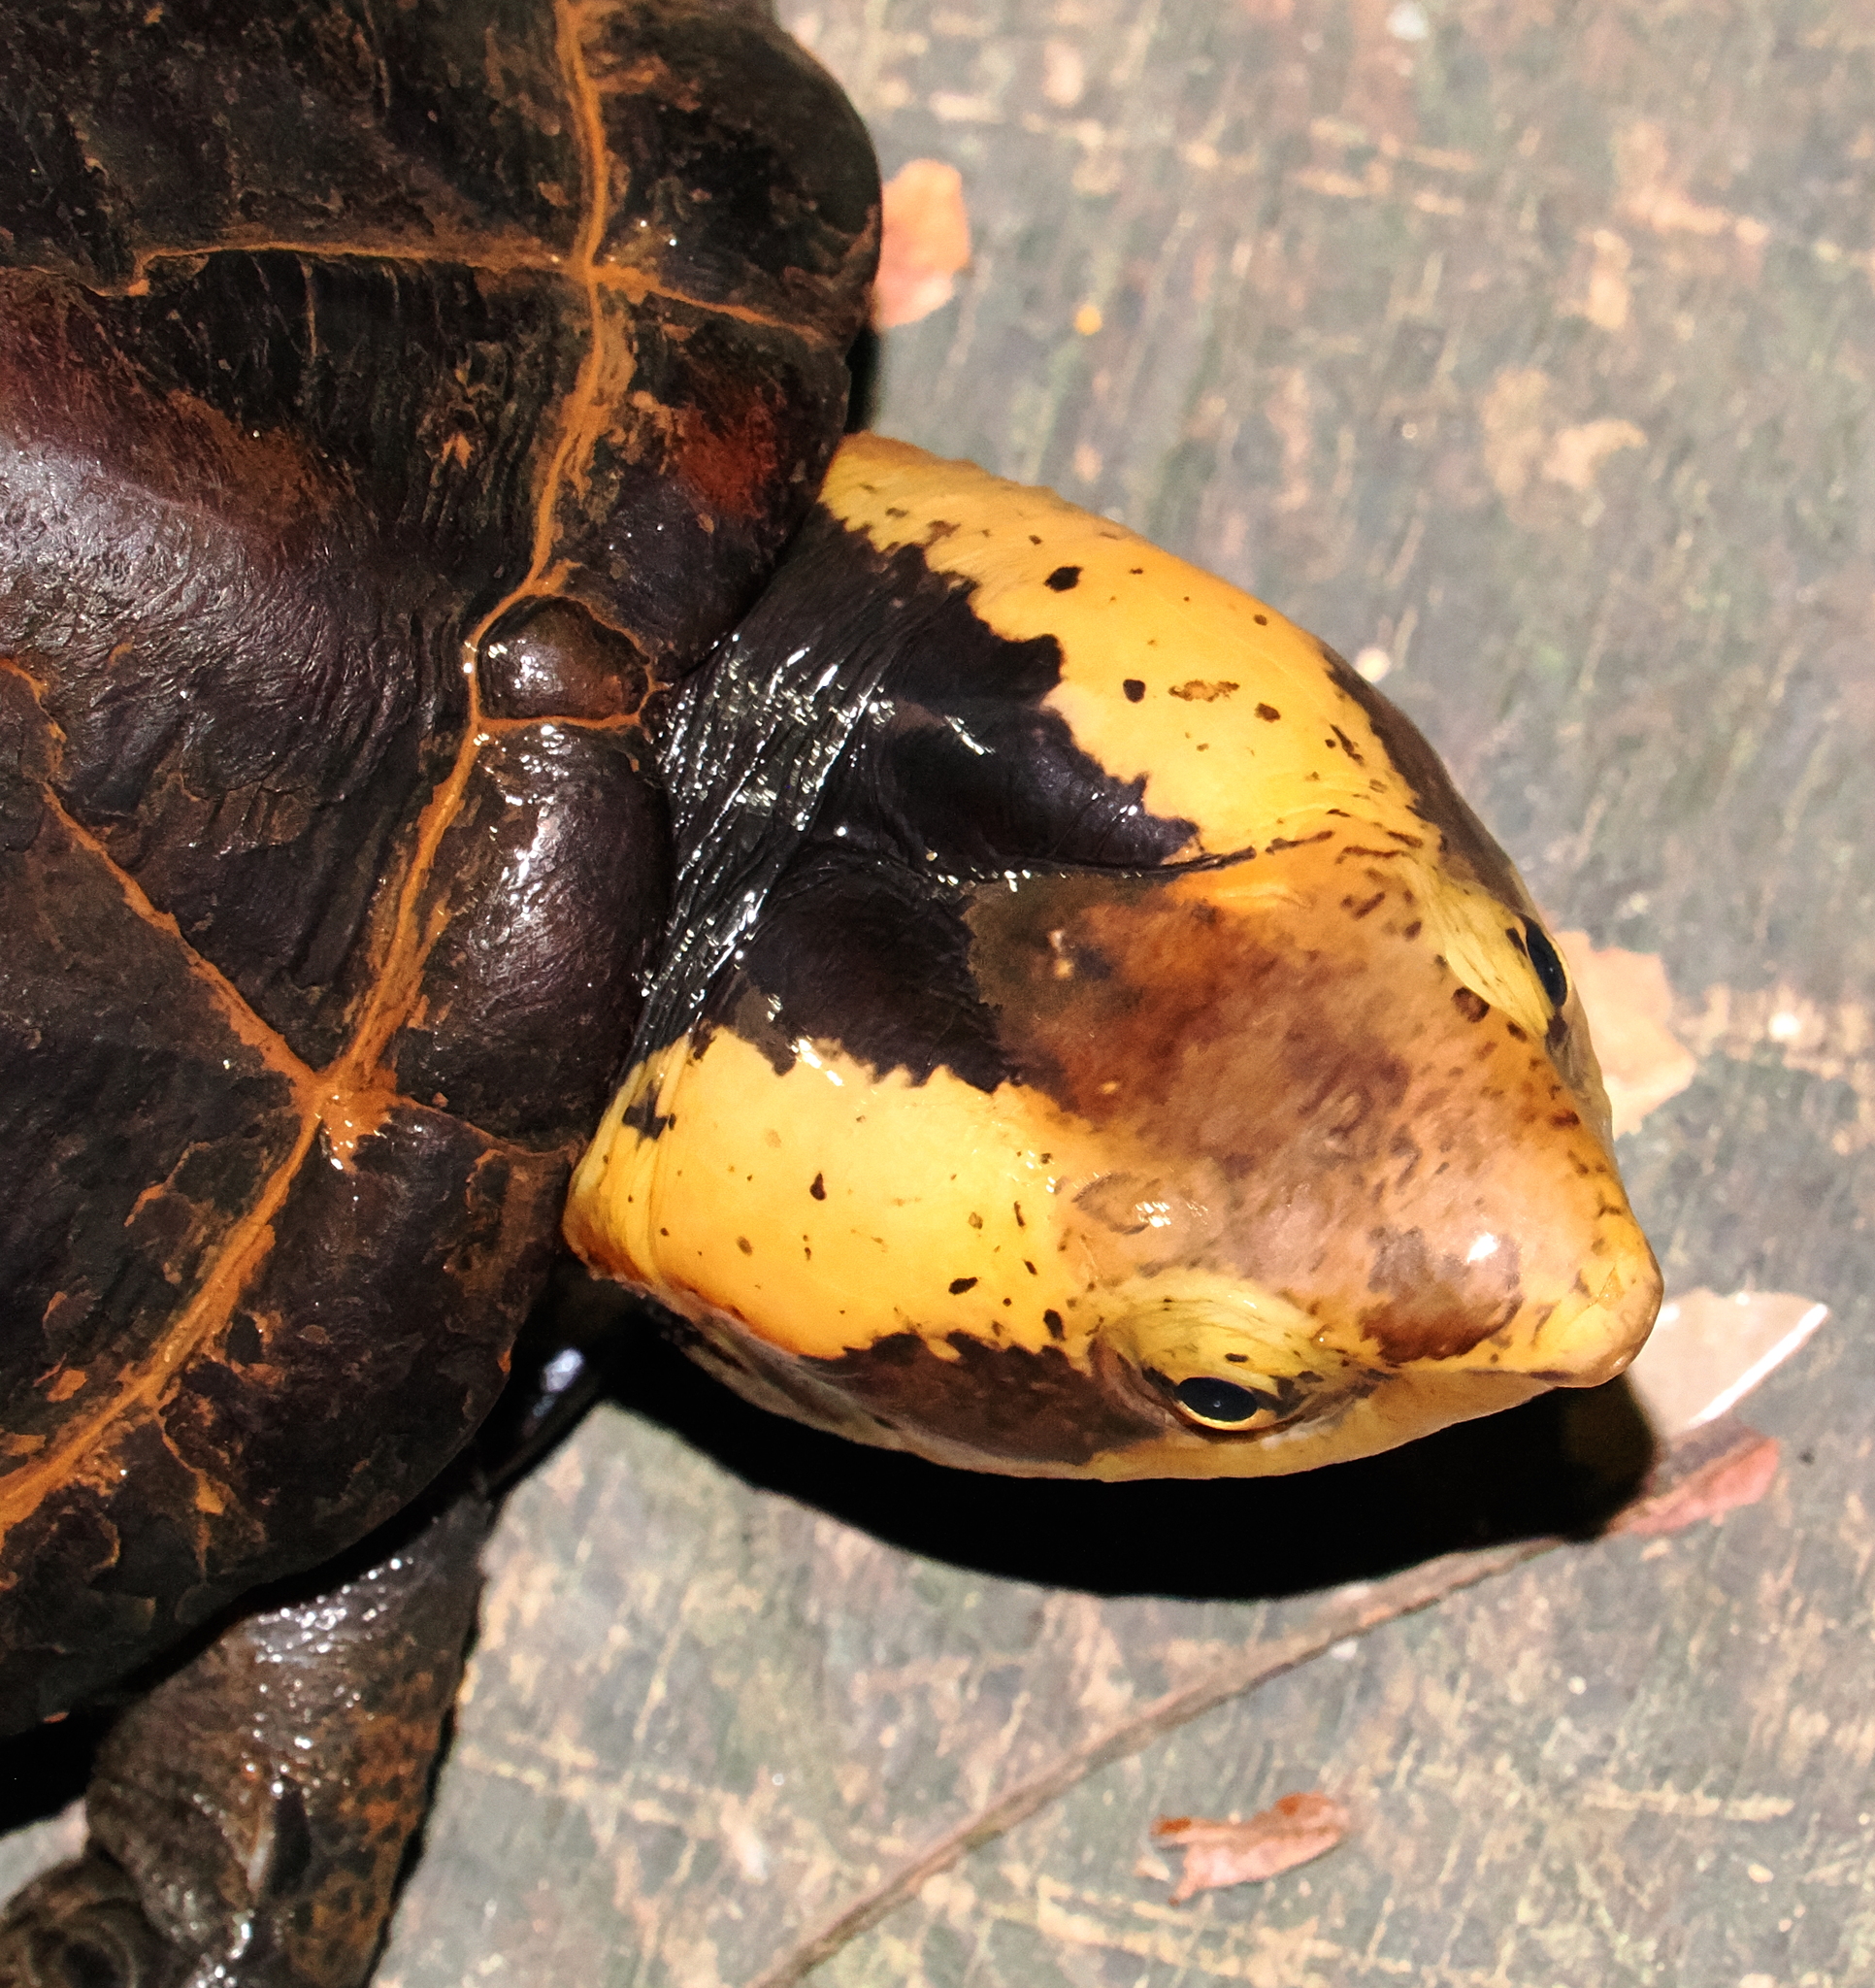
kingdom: Animalia
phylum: Chordata
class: Testudines
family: Kinosternidae
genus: Kinosternon
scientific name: Kinosternon leucostomum
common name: White-lipped mud turtle
